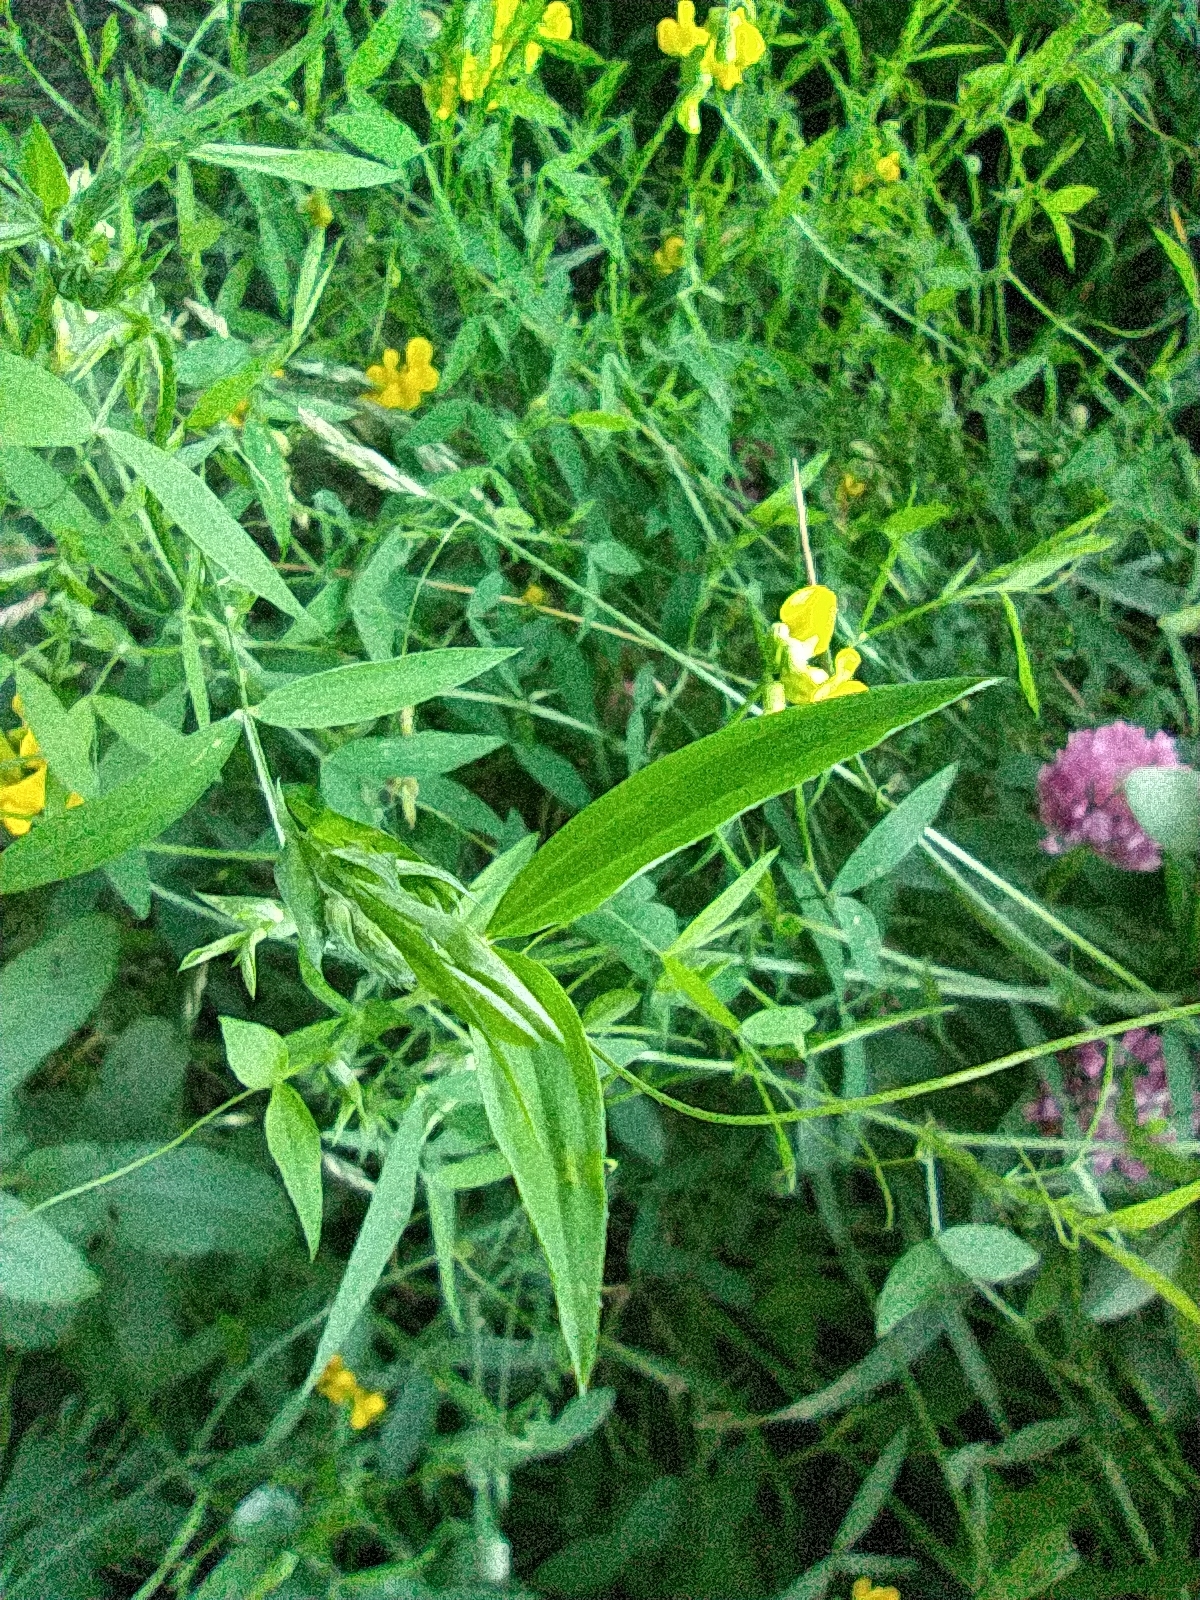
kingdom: Plantae
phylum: Tracheophyta
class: Magnoliopsida
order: Fabales
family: Fabaceae
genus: Lathyrus
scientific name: Lathyrus pratensis
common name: Meadow vetchling
